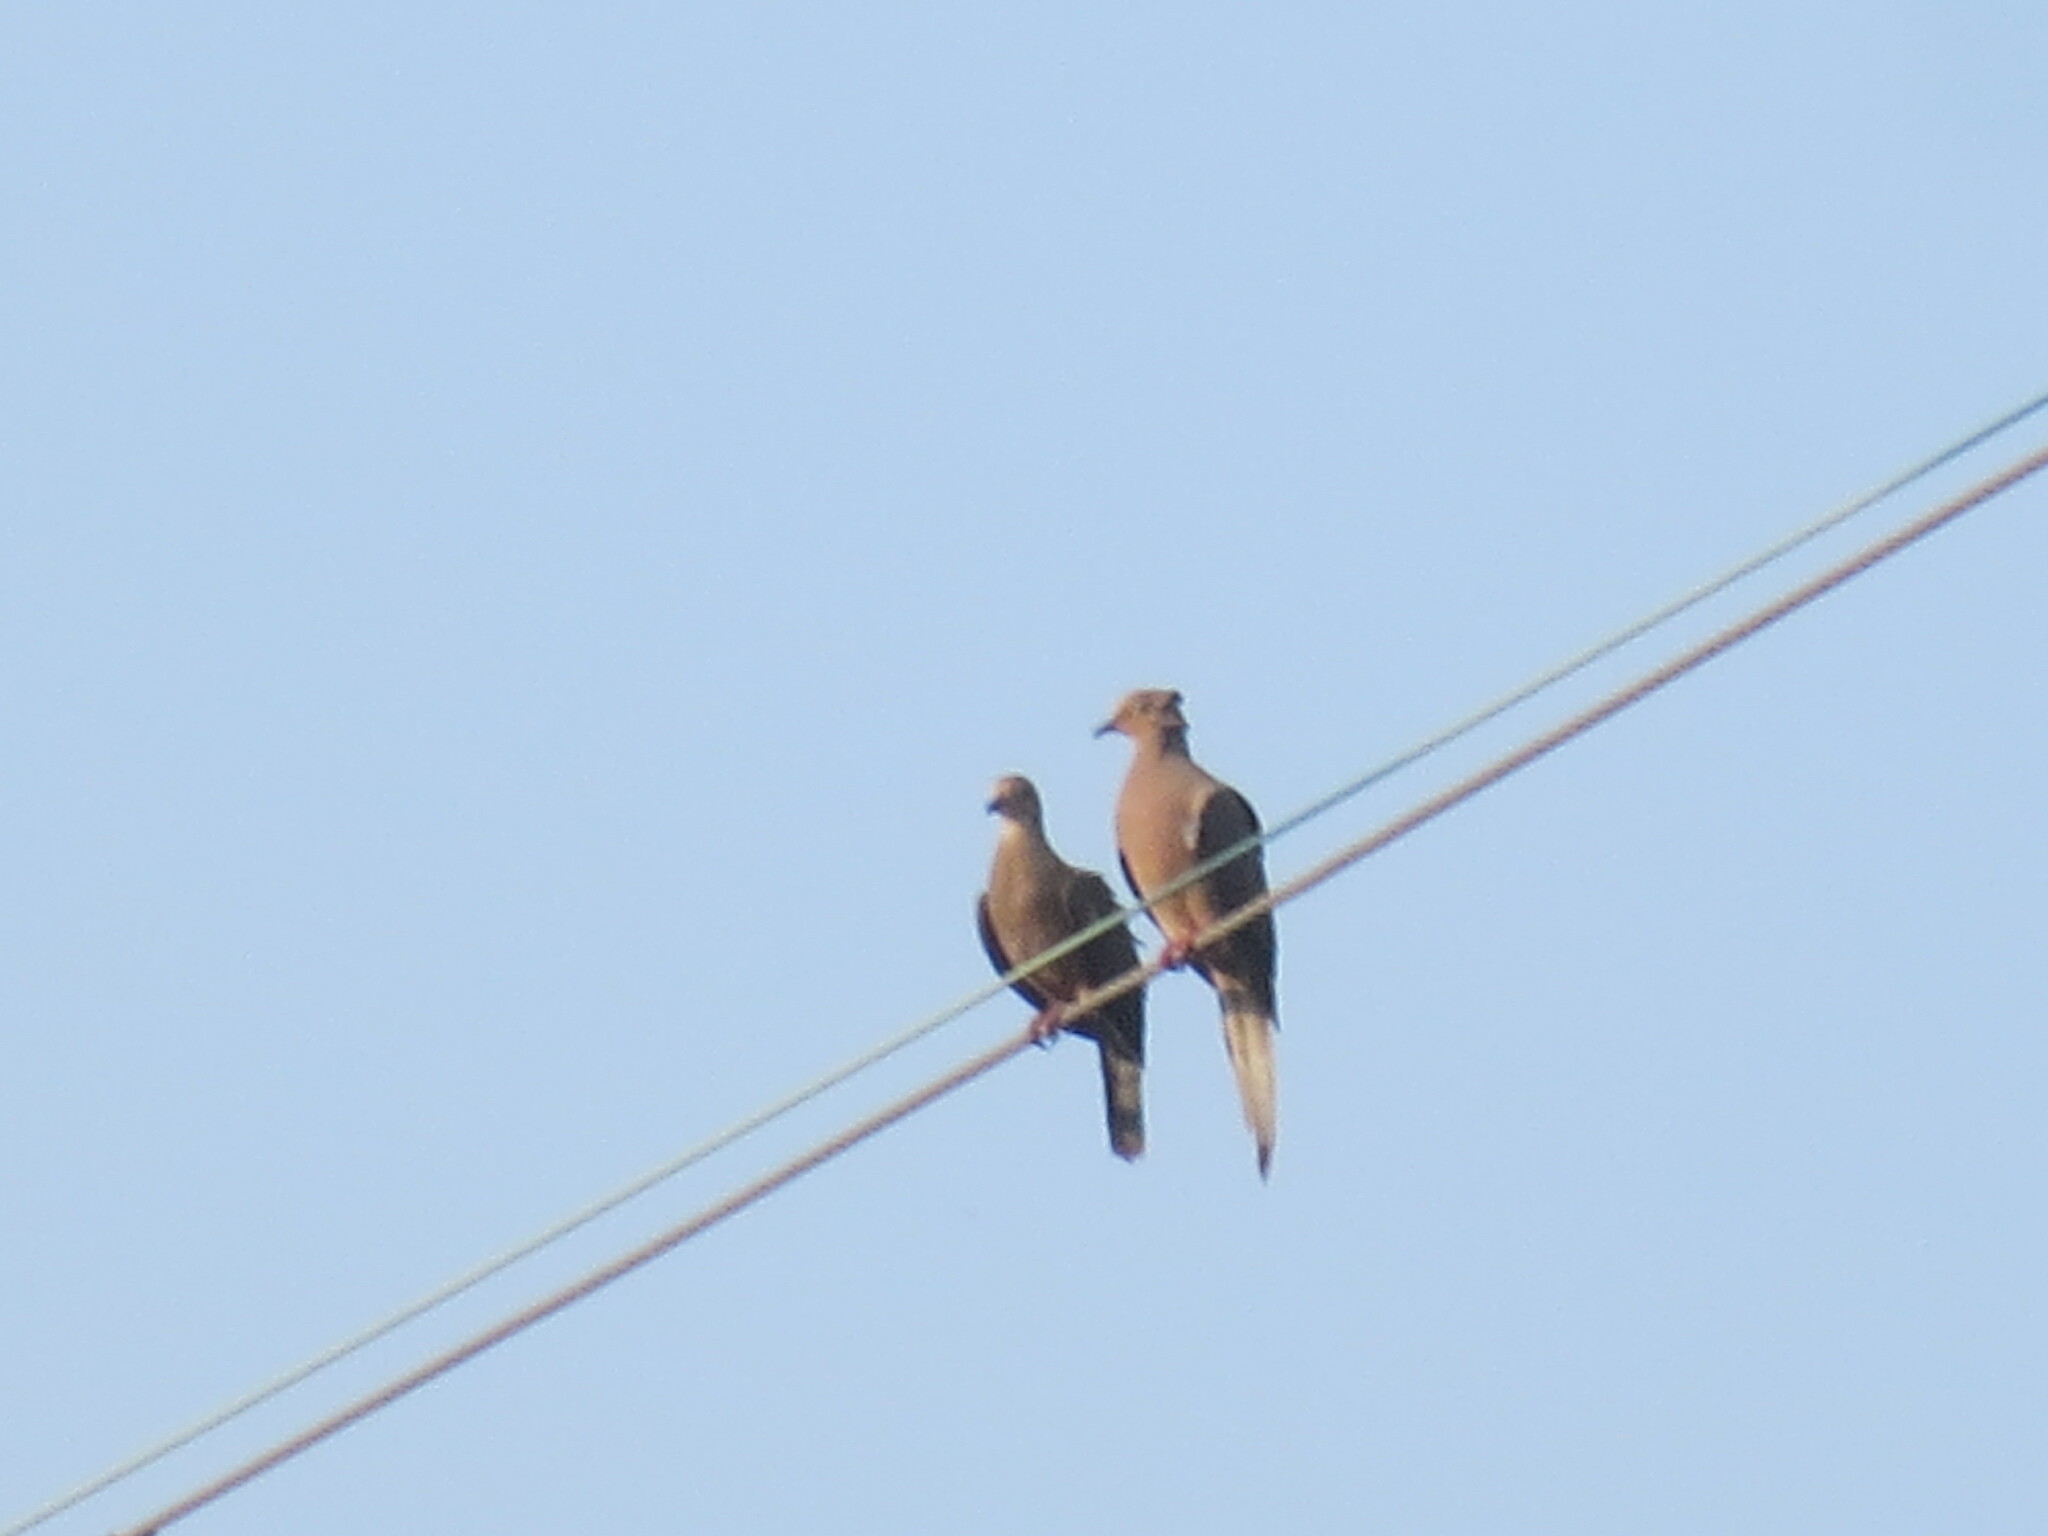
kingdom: Animalia
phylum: Chordata
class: Aves
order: Columbiformes
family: Columbidae
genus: Zenaida
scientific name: Zenaida macroura
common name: Mourning dove
